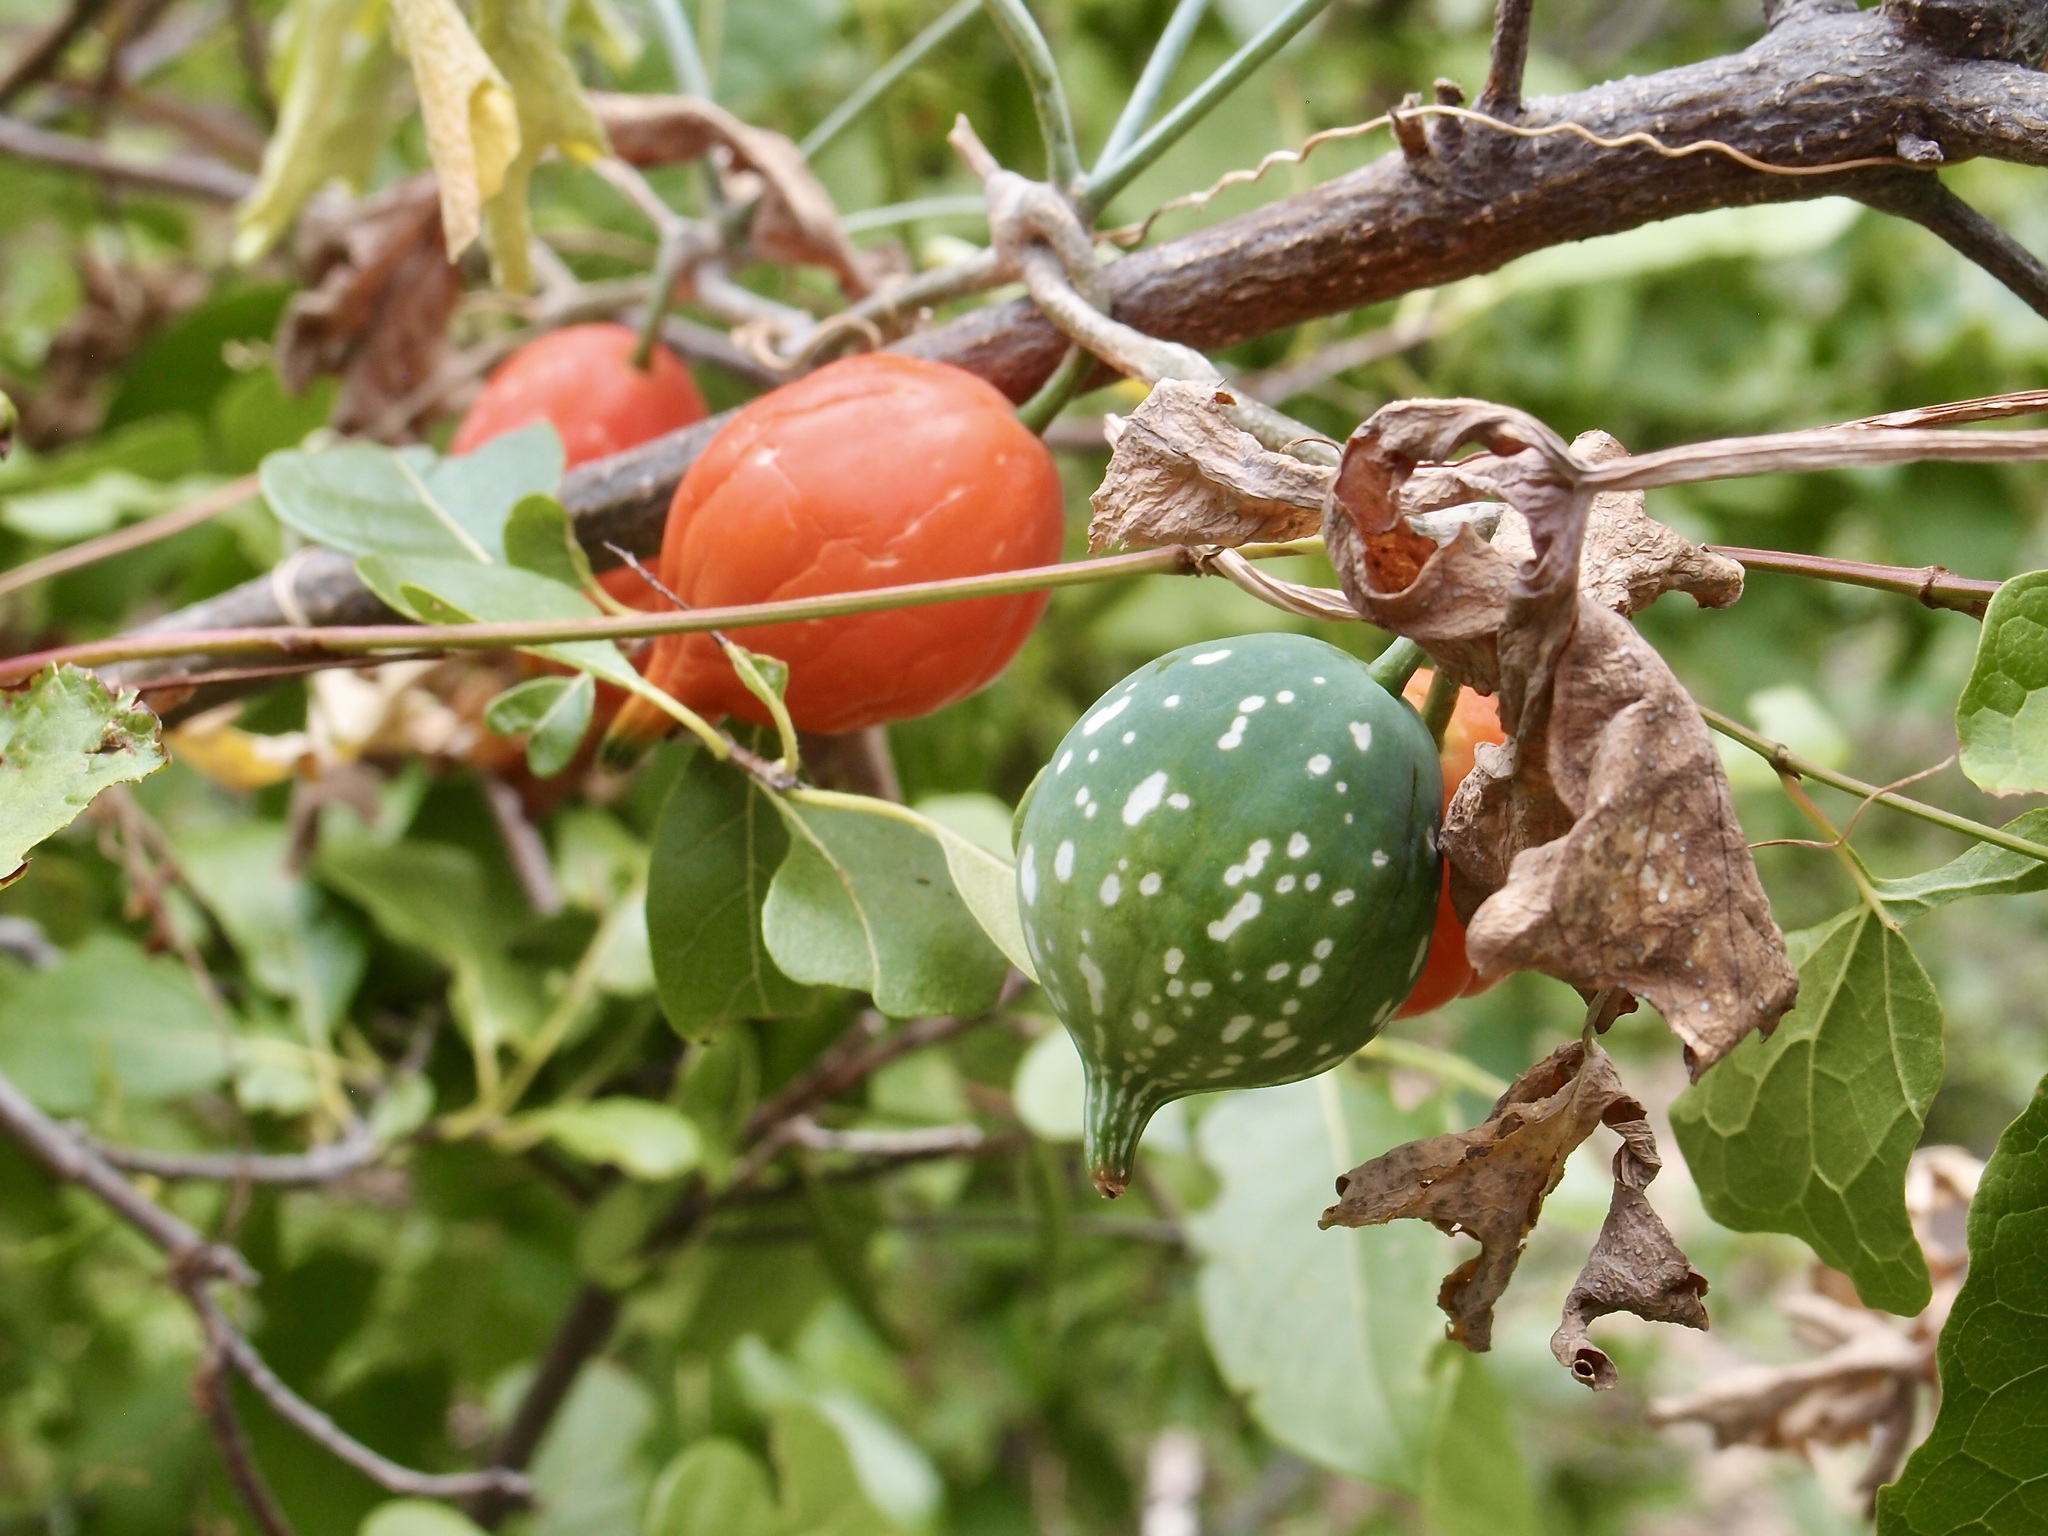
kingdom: Plantae
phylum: Tracheophyta
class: Magnoliopsida
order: Cucurbitales
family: Cucurbitaceae
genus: Ibervillea
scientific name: Ibervillea sonorae
